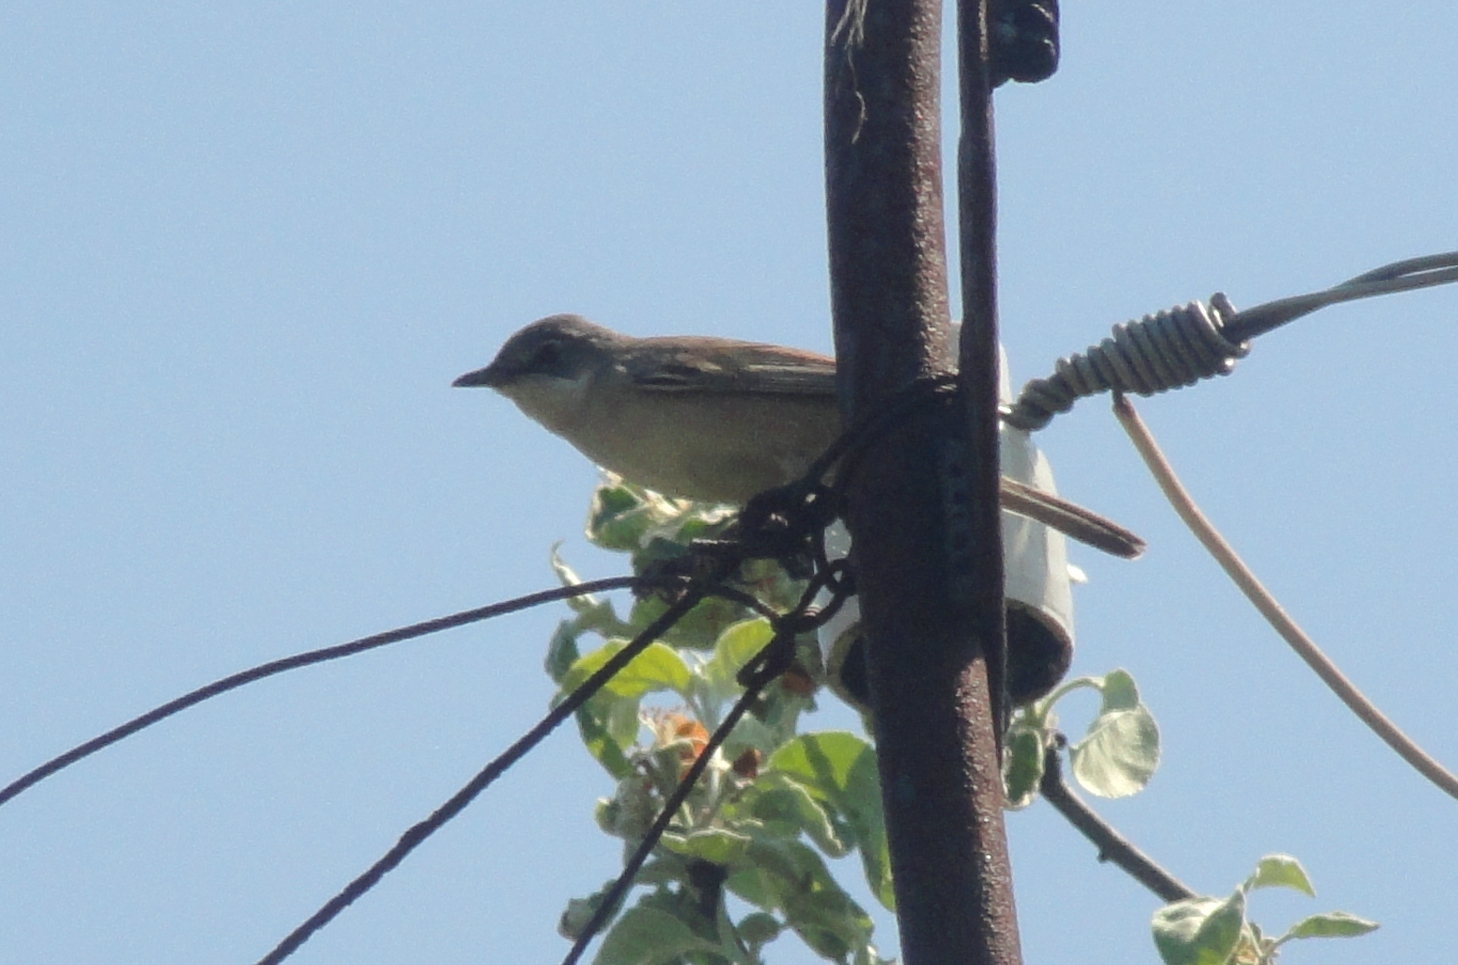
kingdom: Animalia
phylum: Chordata
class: Aves
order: Passeriformes
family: Sylviidae
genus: Sylvia
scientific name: Sylvia communis
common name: Common whitethroat
